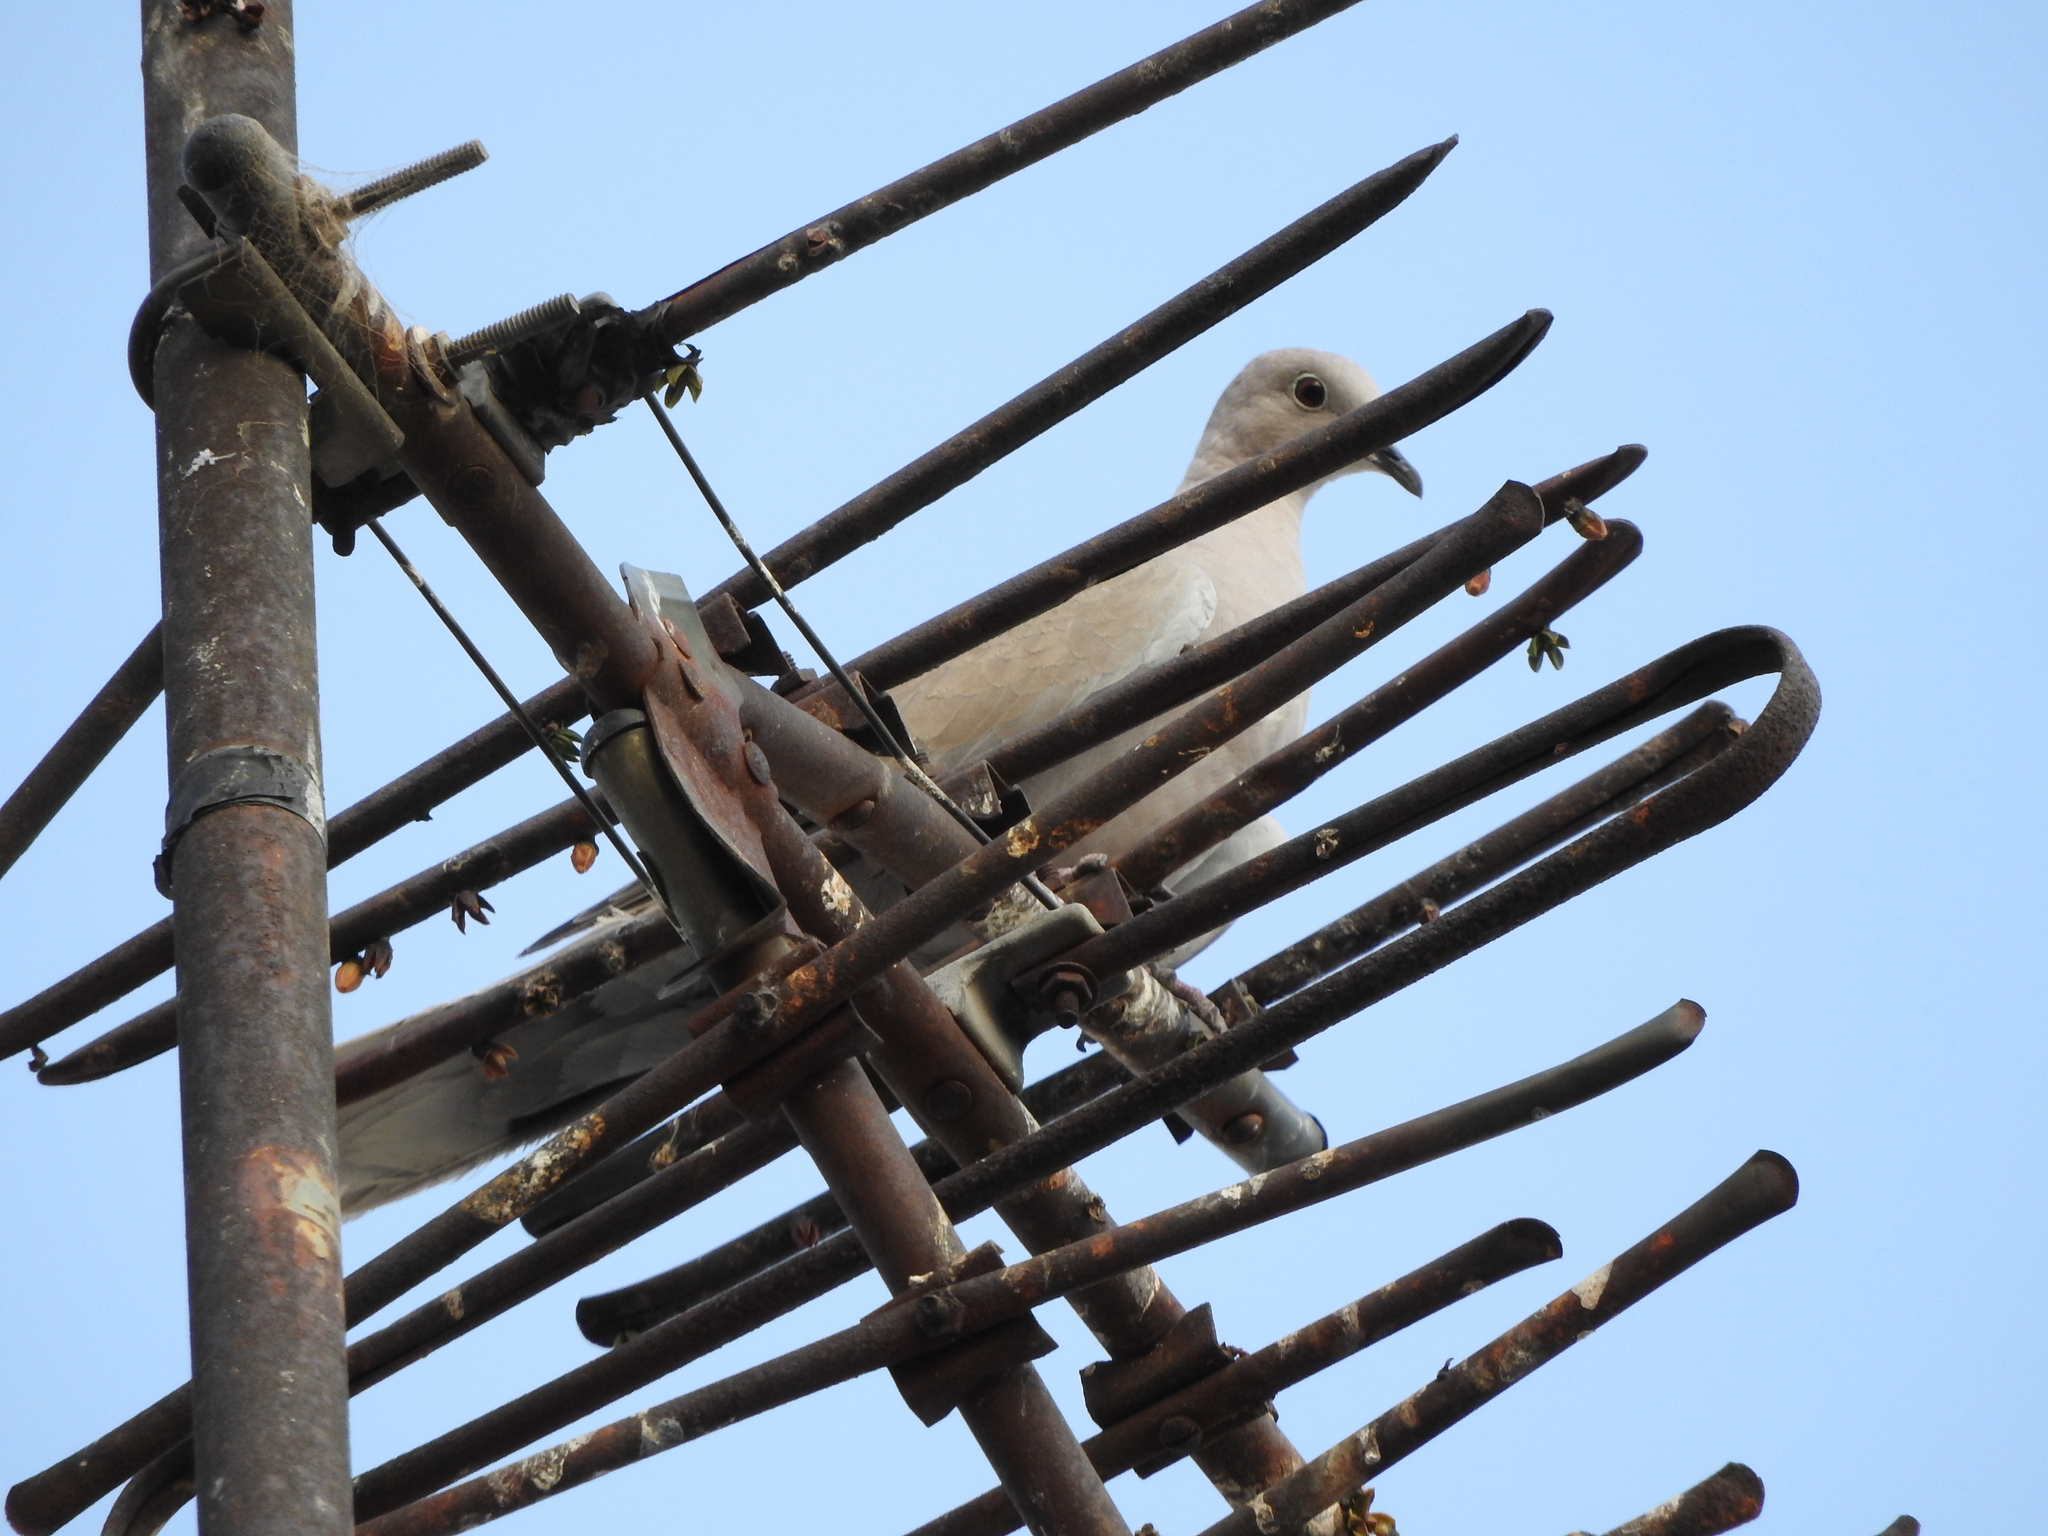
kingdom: Animalia
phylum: Chordata
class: Aves
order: Columbiformes
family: Columbidae
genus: Streptopelia
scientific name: Streptopelia decaocto
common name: Eurasian collared dove
